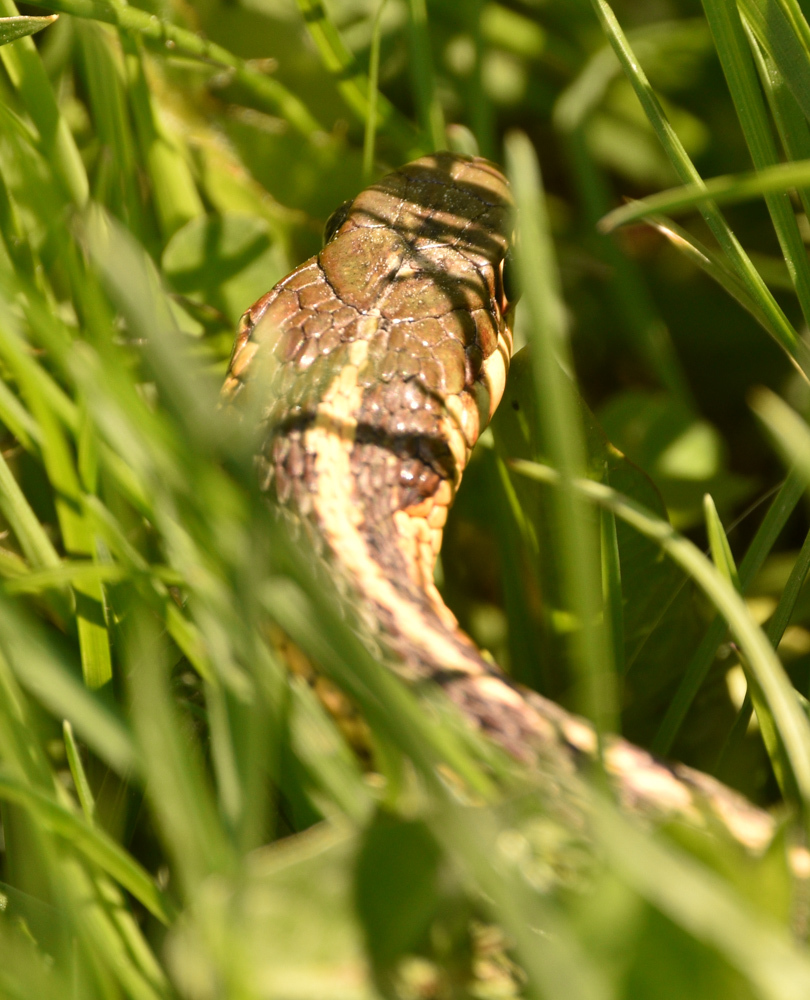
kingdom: Animalia
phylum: Chordata
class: Squamata
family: Colubridae
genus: Thamnophis
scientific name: Thamnophis sirtalis
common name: Common garter snake
